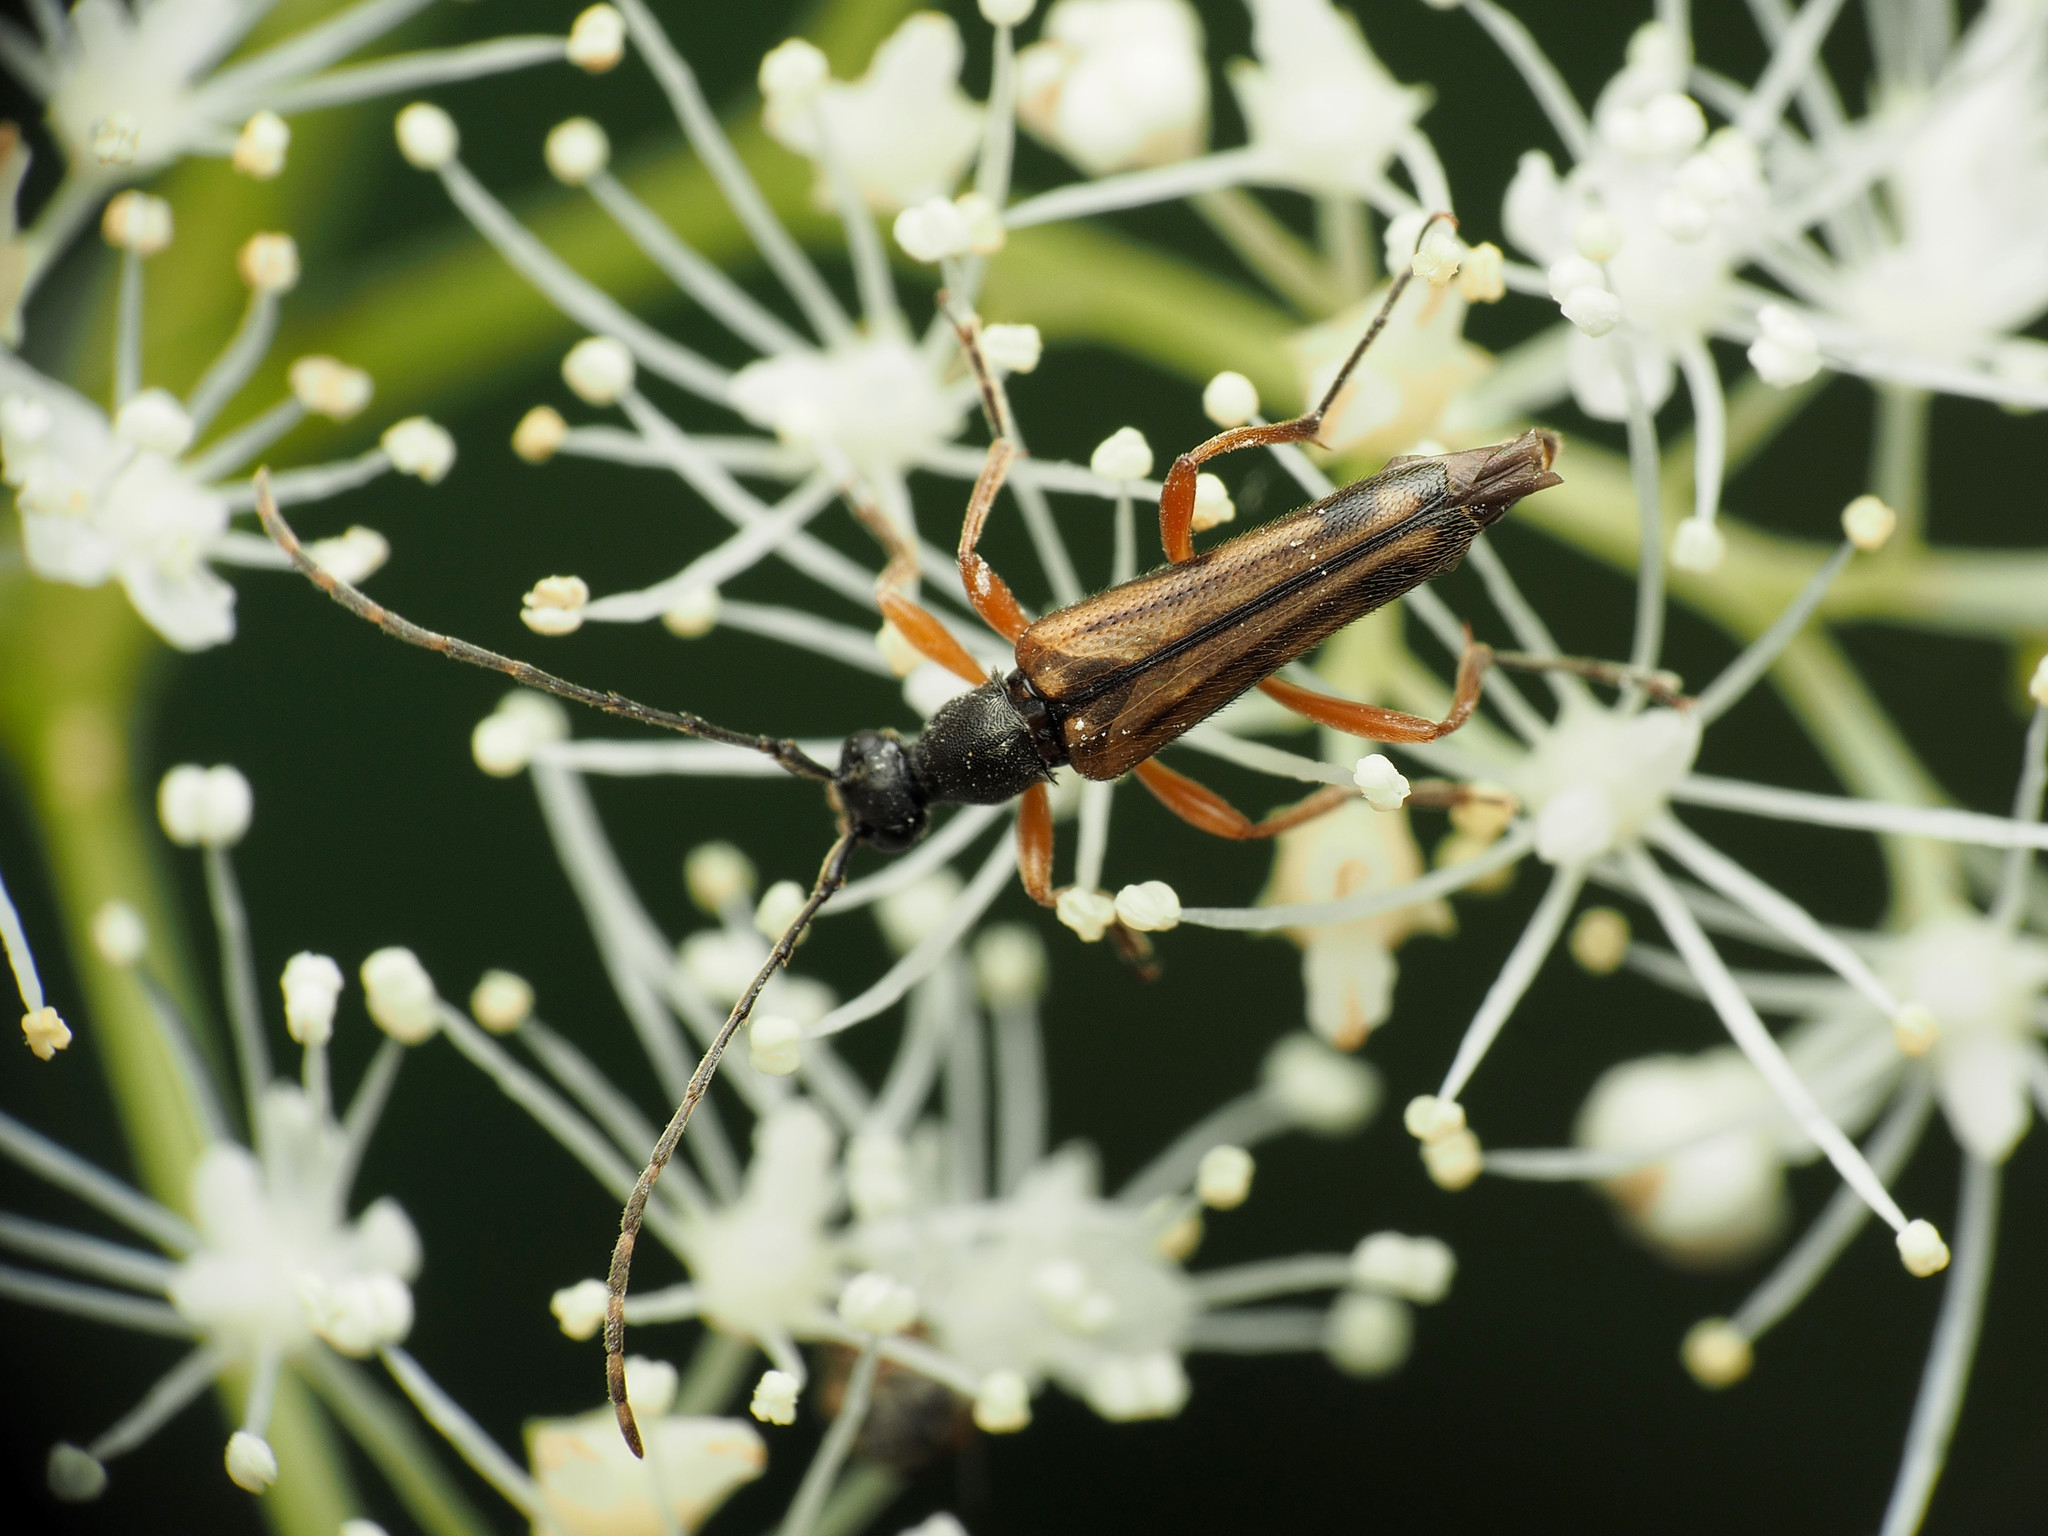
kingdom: Animalia
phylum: Arthropoda
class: Insecta
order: Coleoptera
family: Cerambycidae
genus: Analeptura
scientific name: Analeptura lineola
